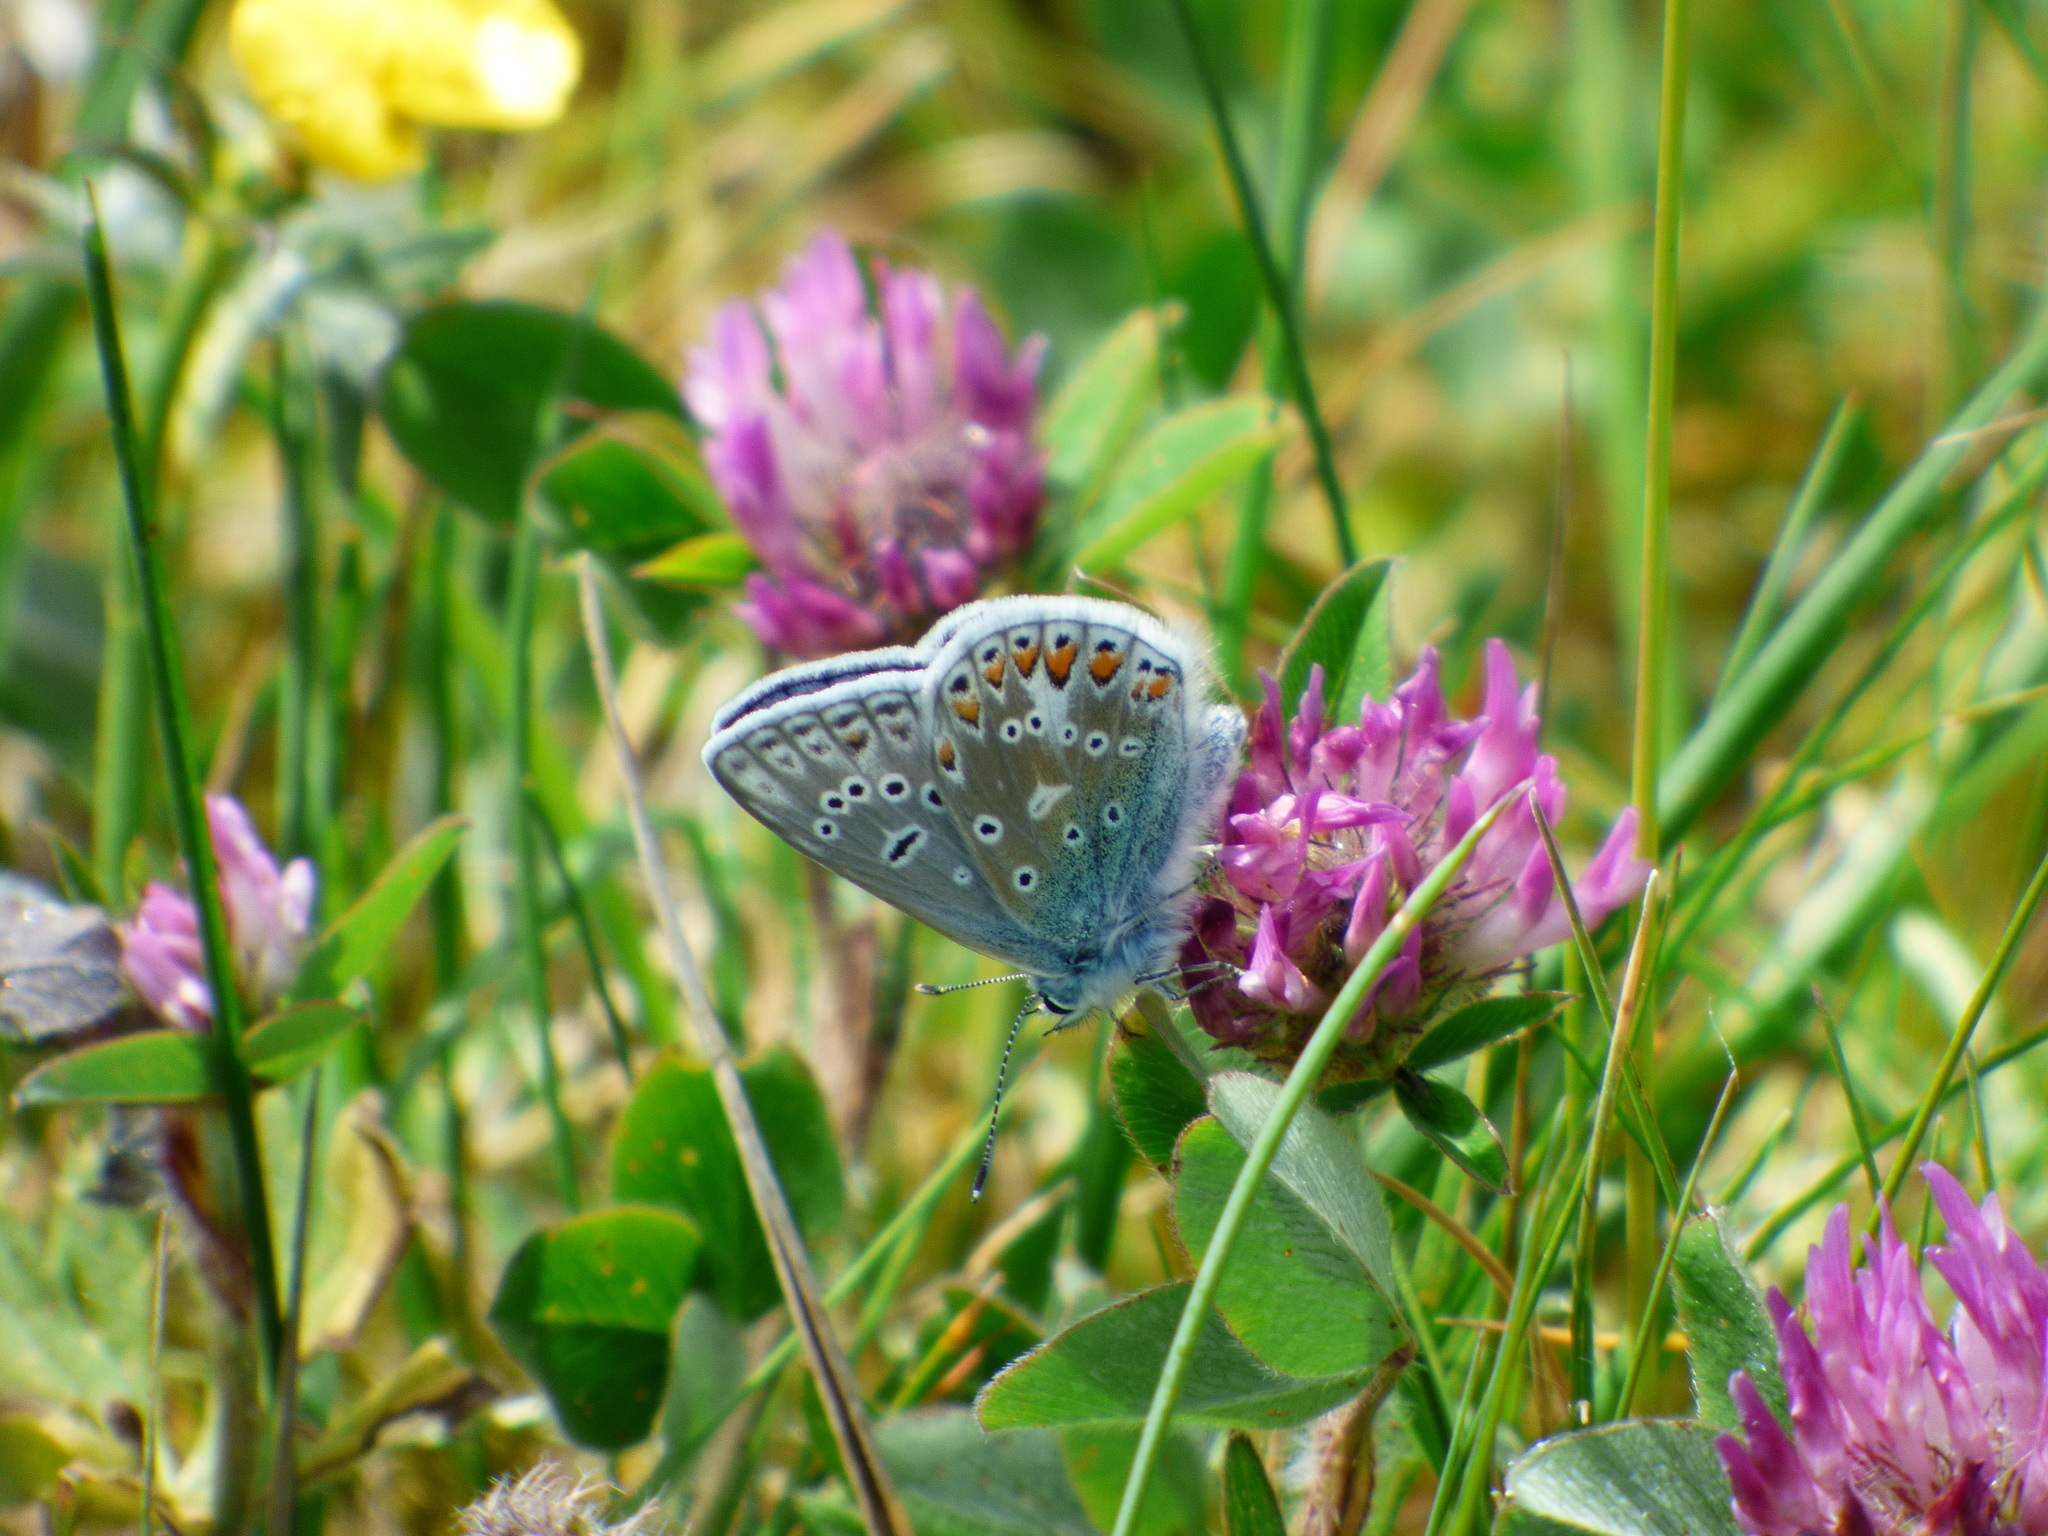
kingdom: Animalia
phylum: Arthropoda
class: Insecta
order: Lepidoptera
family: Lycaenidae
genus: Polyommatus
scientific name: Polyommatus icarus
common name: Common blue
